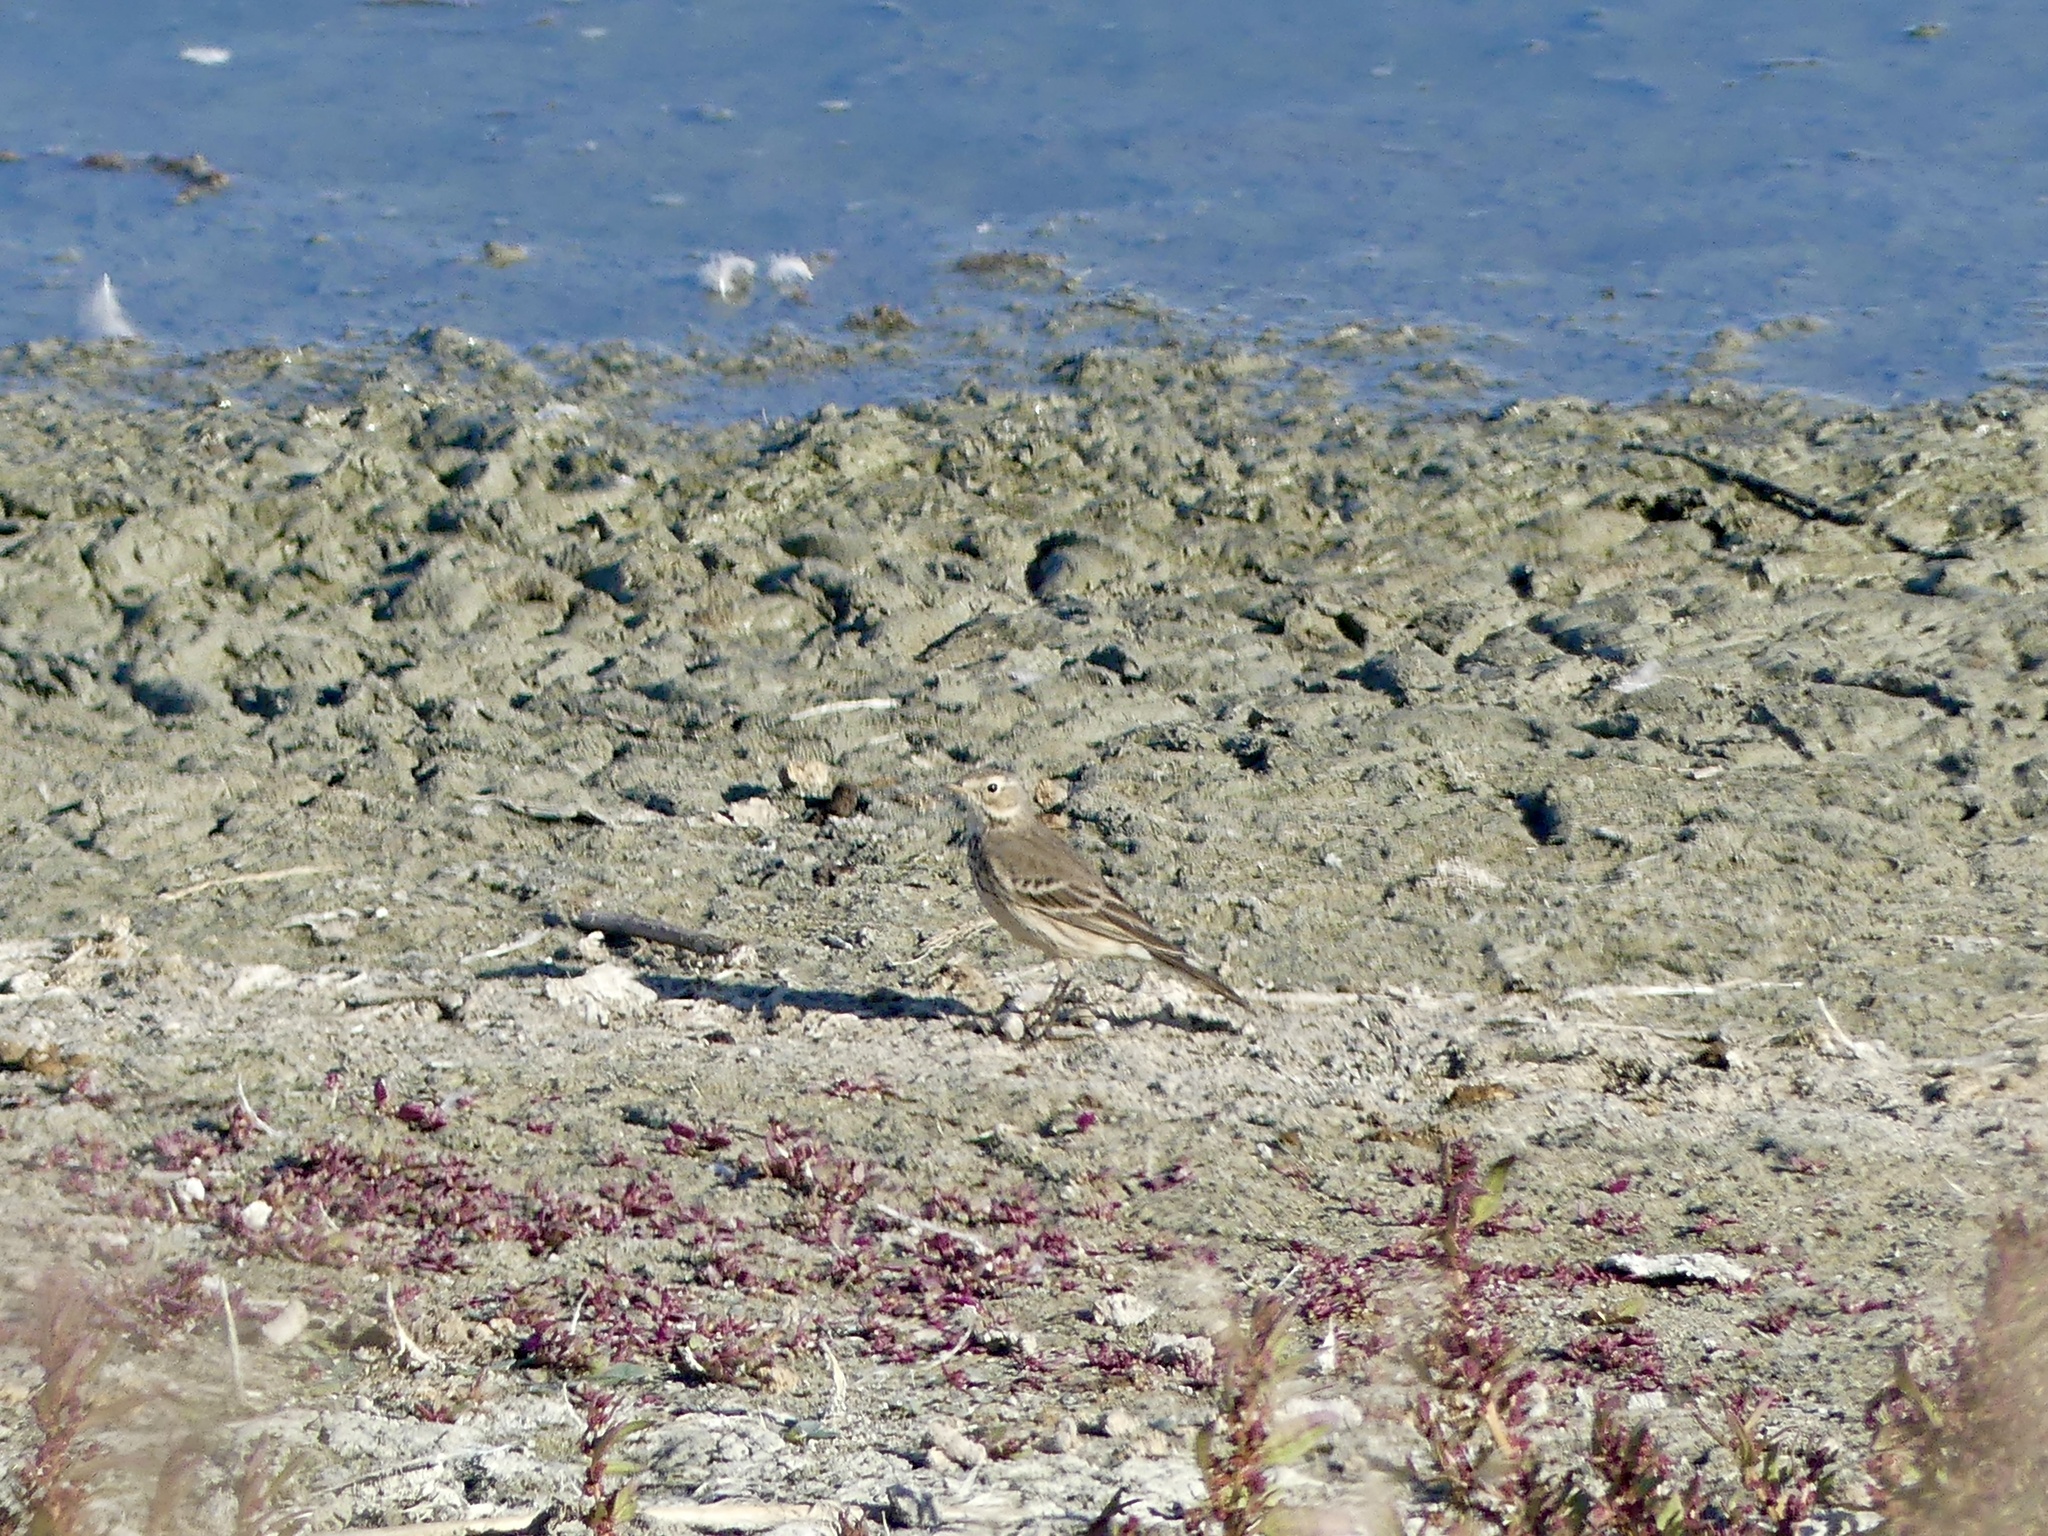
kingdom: Animalia
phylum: Chordata
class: Aves
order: Passeriformes
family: Motacillidae
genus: Anthus
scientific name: Anthus rubescens
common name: Buff-bellied pipit
